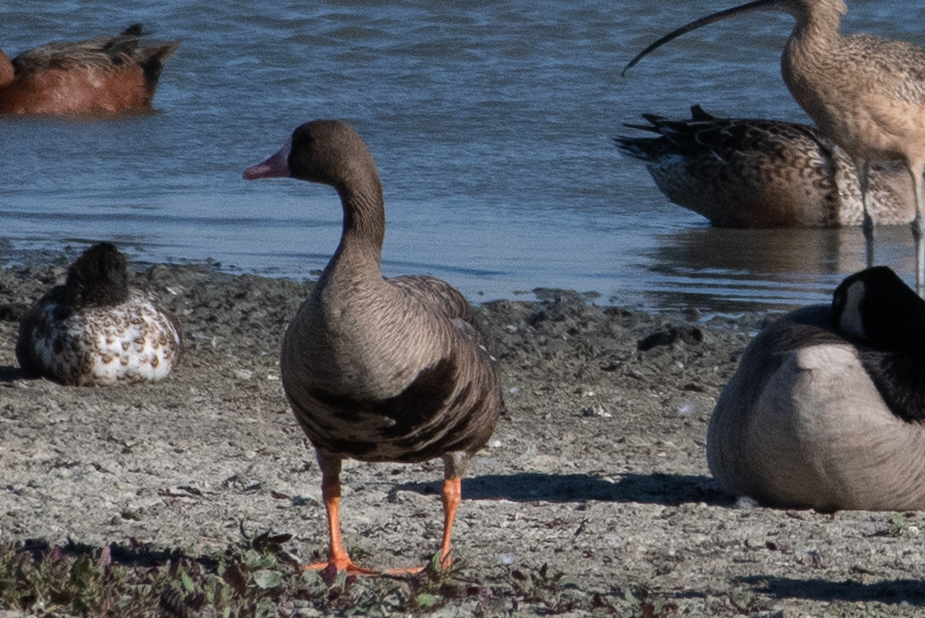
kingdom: Animalia
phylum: Chordata
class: Aves
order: Anseriformes
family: Anatidae
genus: Anser
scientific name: Anser albifrons
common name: Greater white-fronted goose
